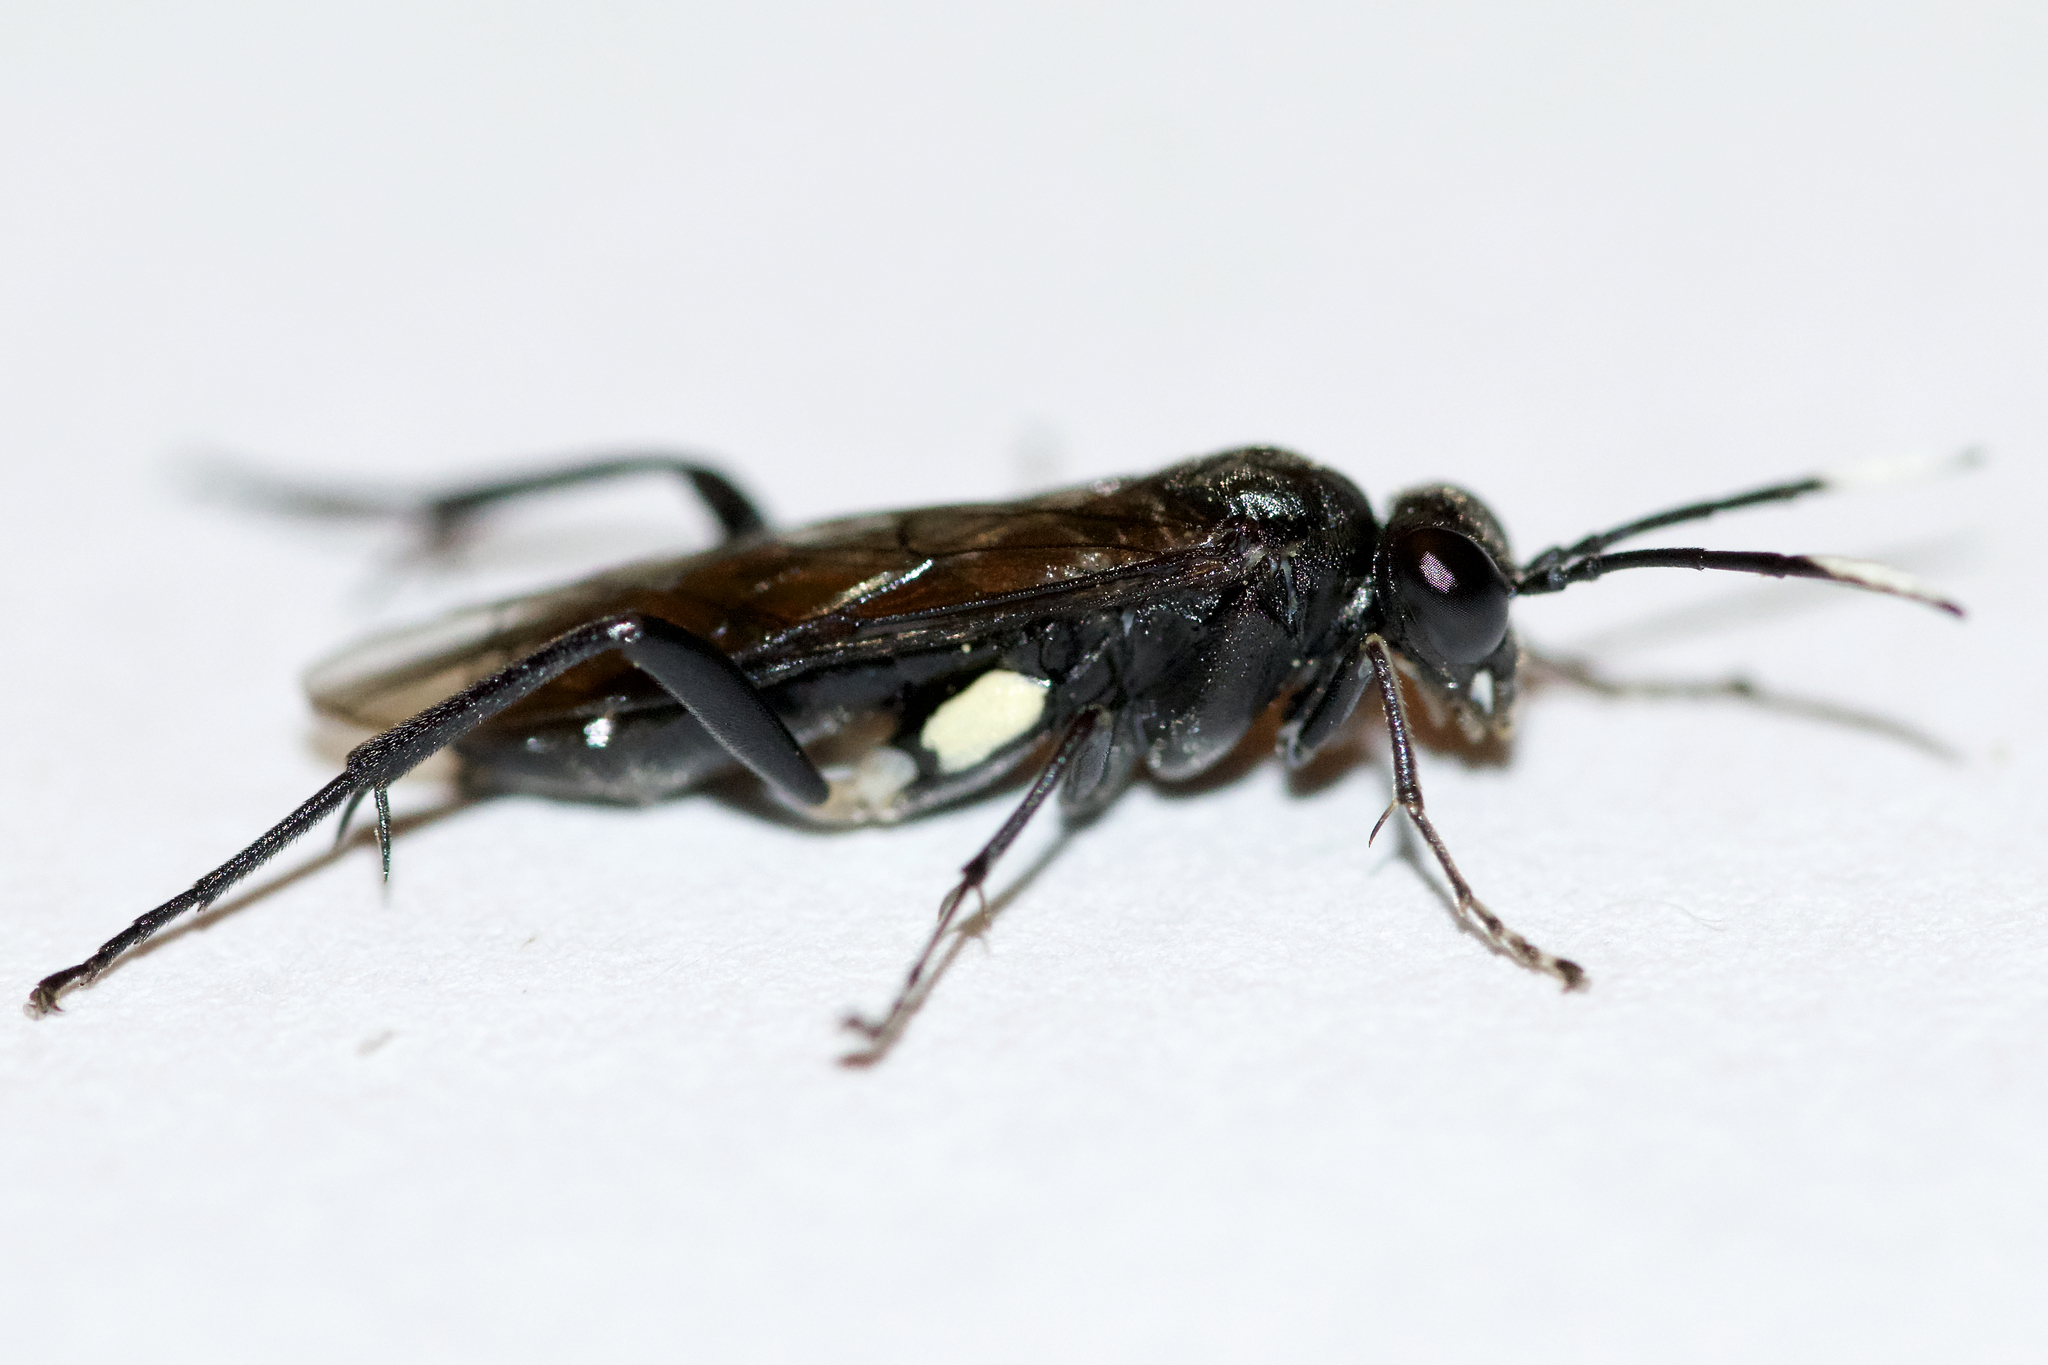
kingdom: Animalia
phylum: Arthropoda
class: Insecta
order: Hymenoptera
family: Tenthredinidae
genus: Macrophya
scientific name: Macrophya nigra
